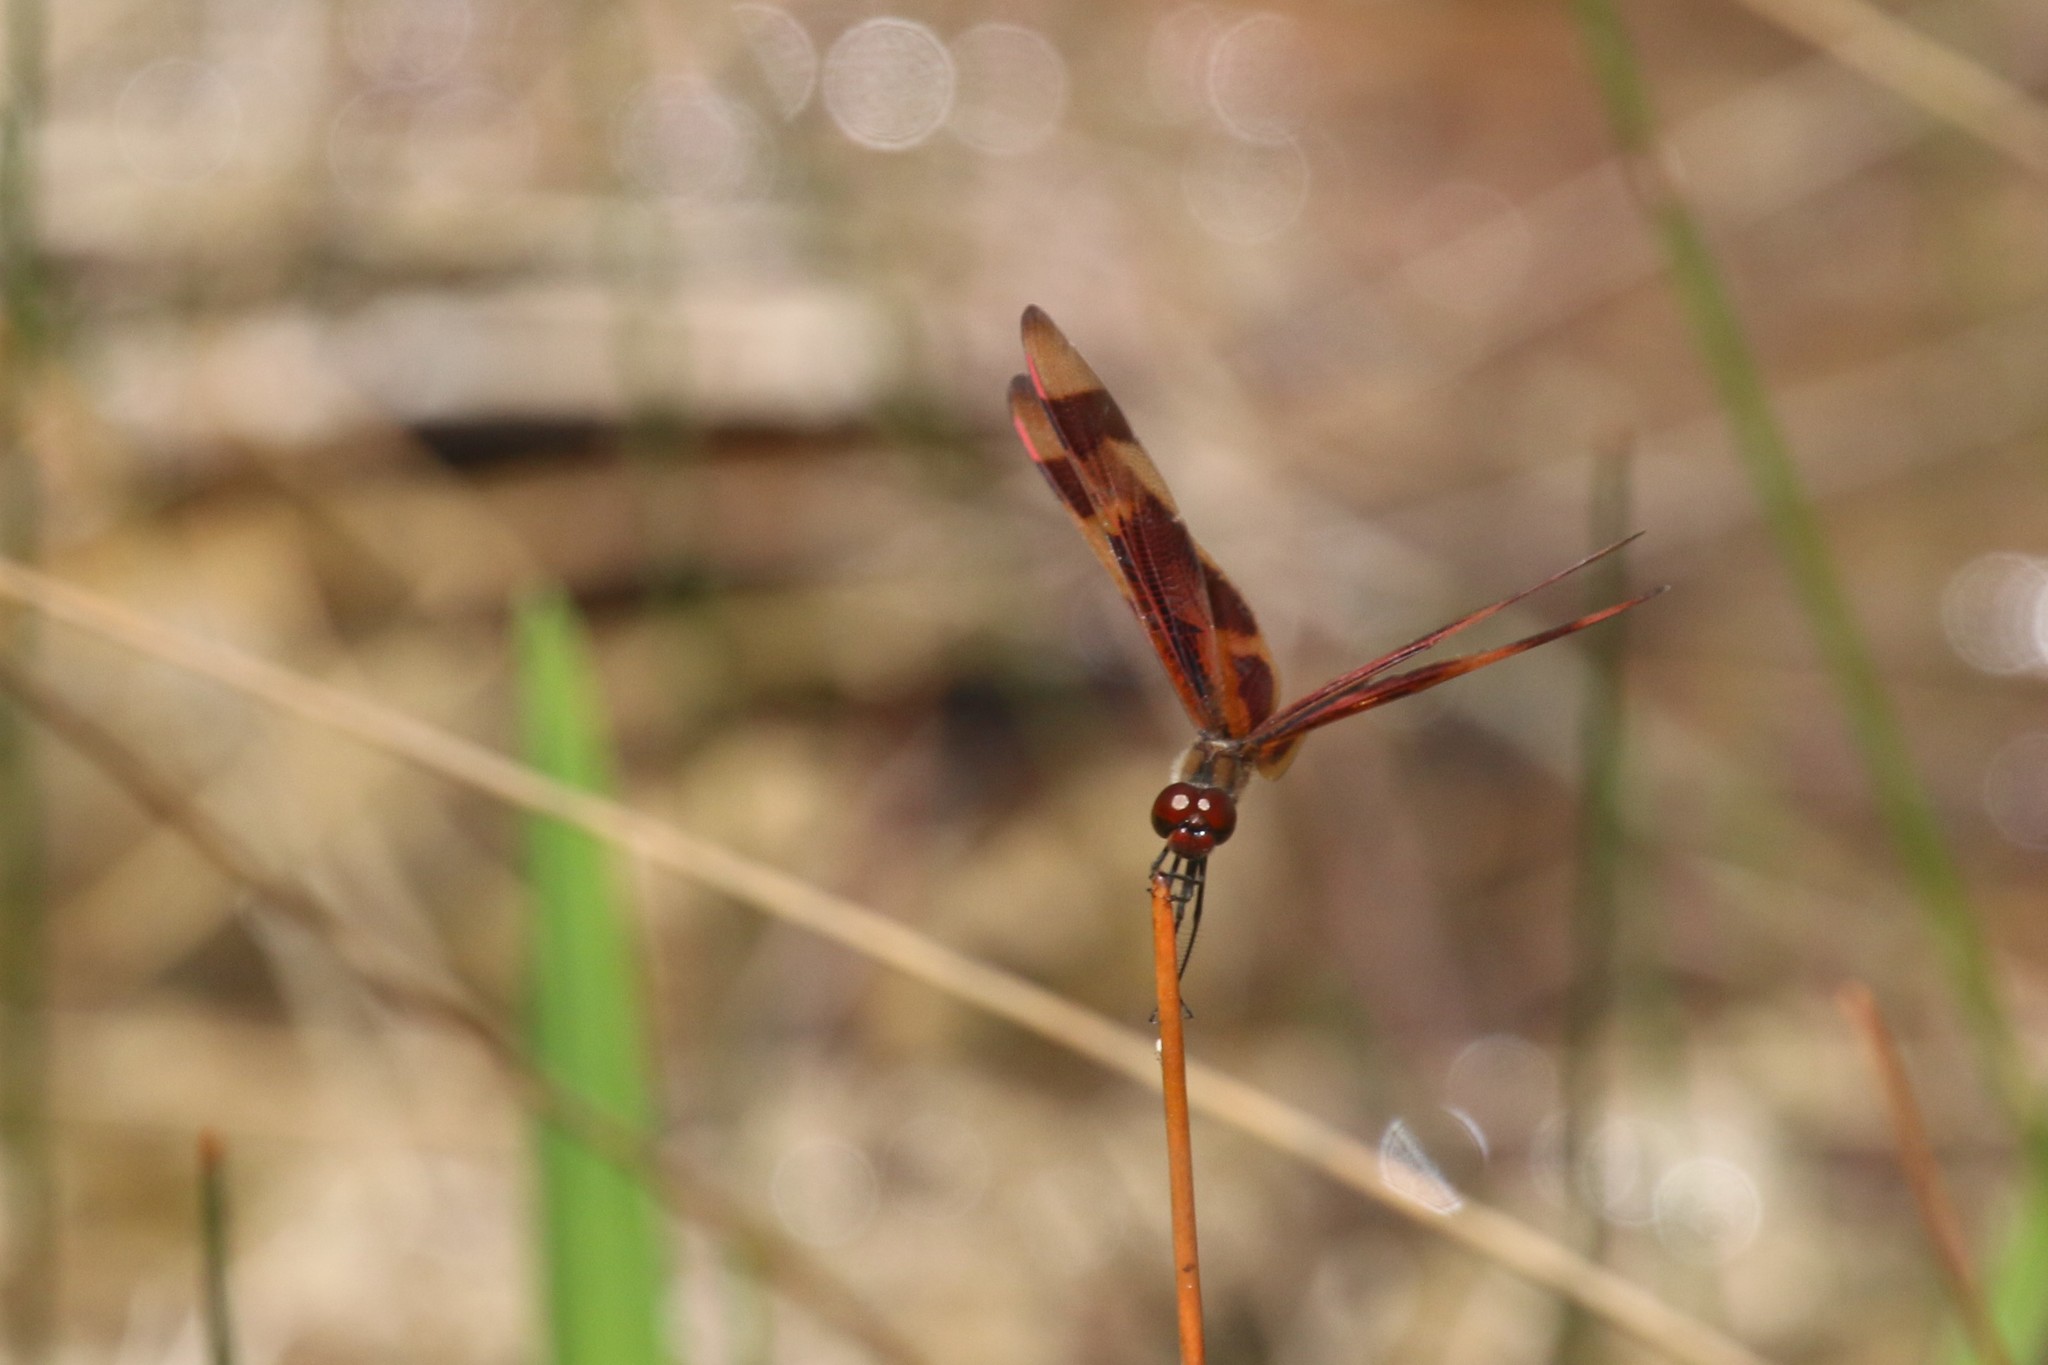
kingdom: Animalia
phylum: Arthropoda
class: Insecta
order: Odonata
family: Libellulidae
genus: Celithemis
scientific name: Celithemis eponina
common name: Halloween pennant
